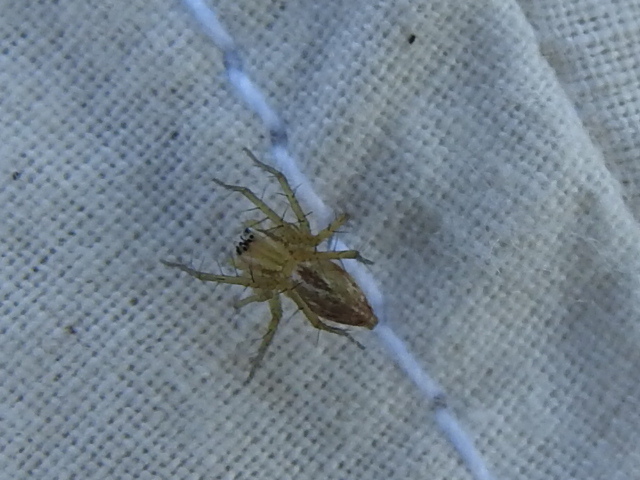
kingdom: Animalia
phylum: Arthropoda
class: Arachnida
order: Araneae
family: Oxyopidae
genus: Oxyopes
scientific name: Oxyopes salticus
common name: Lynx spiders
